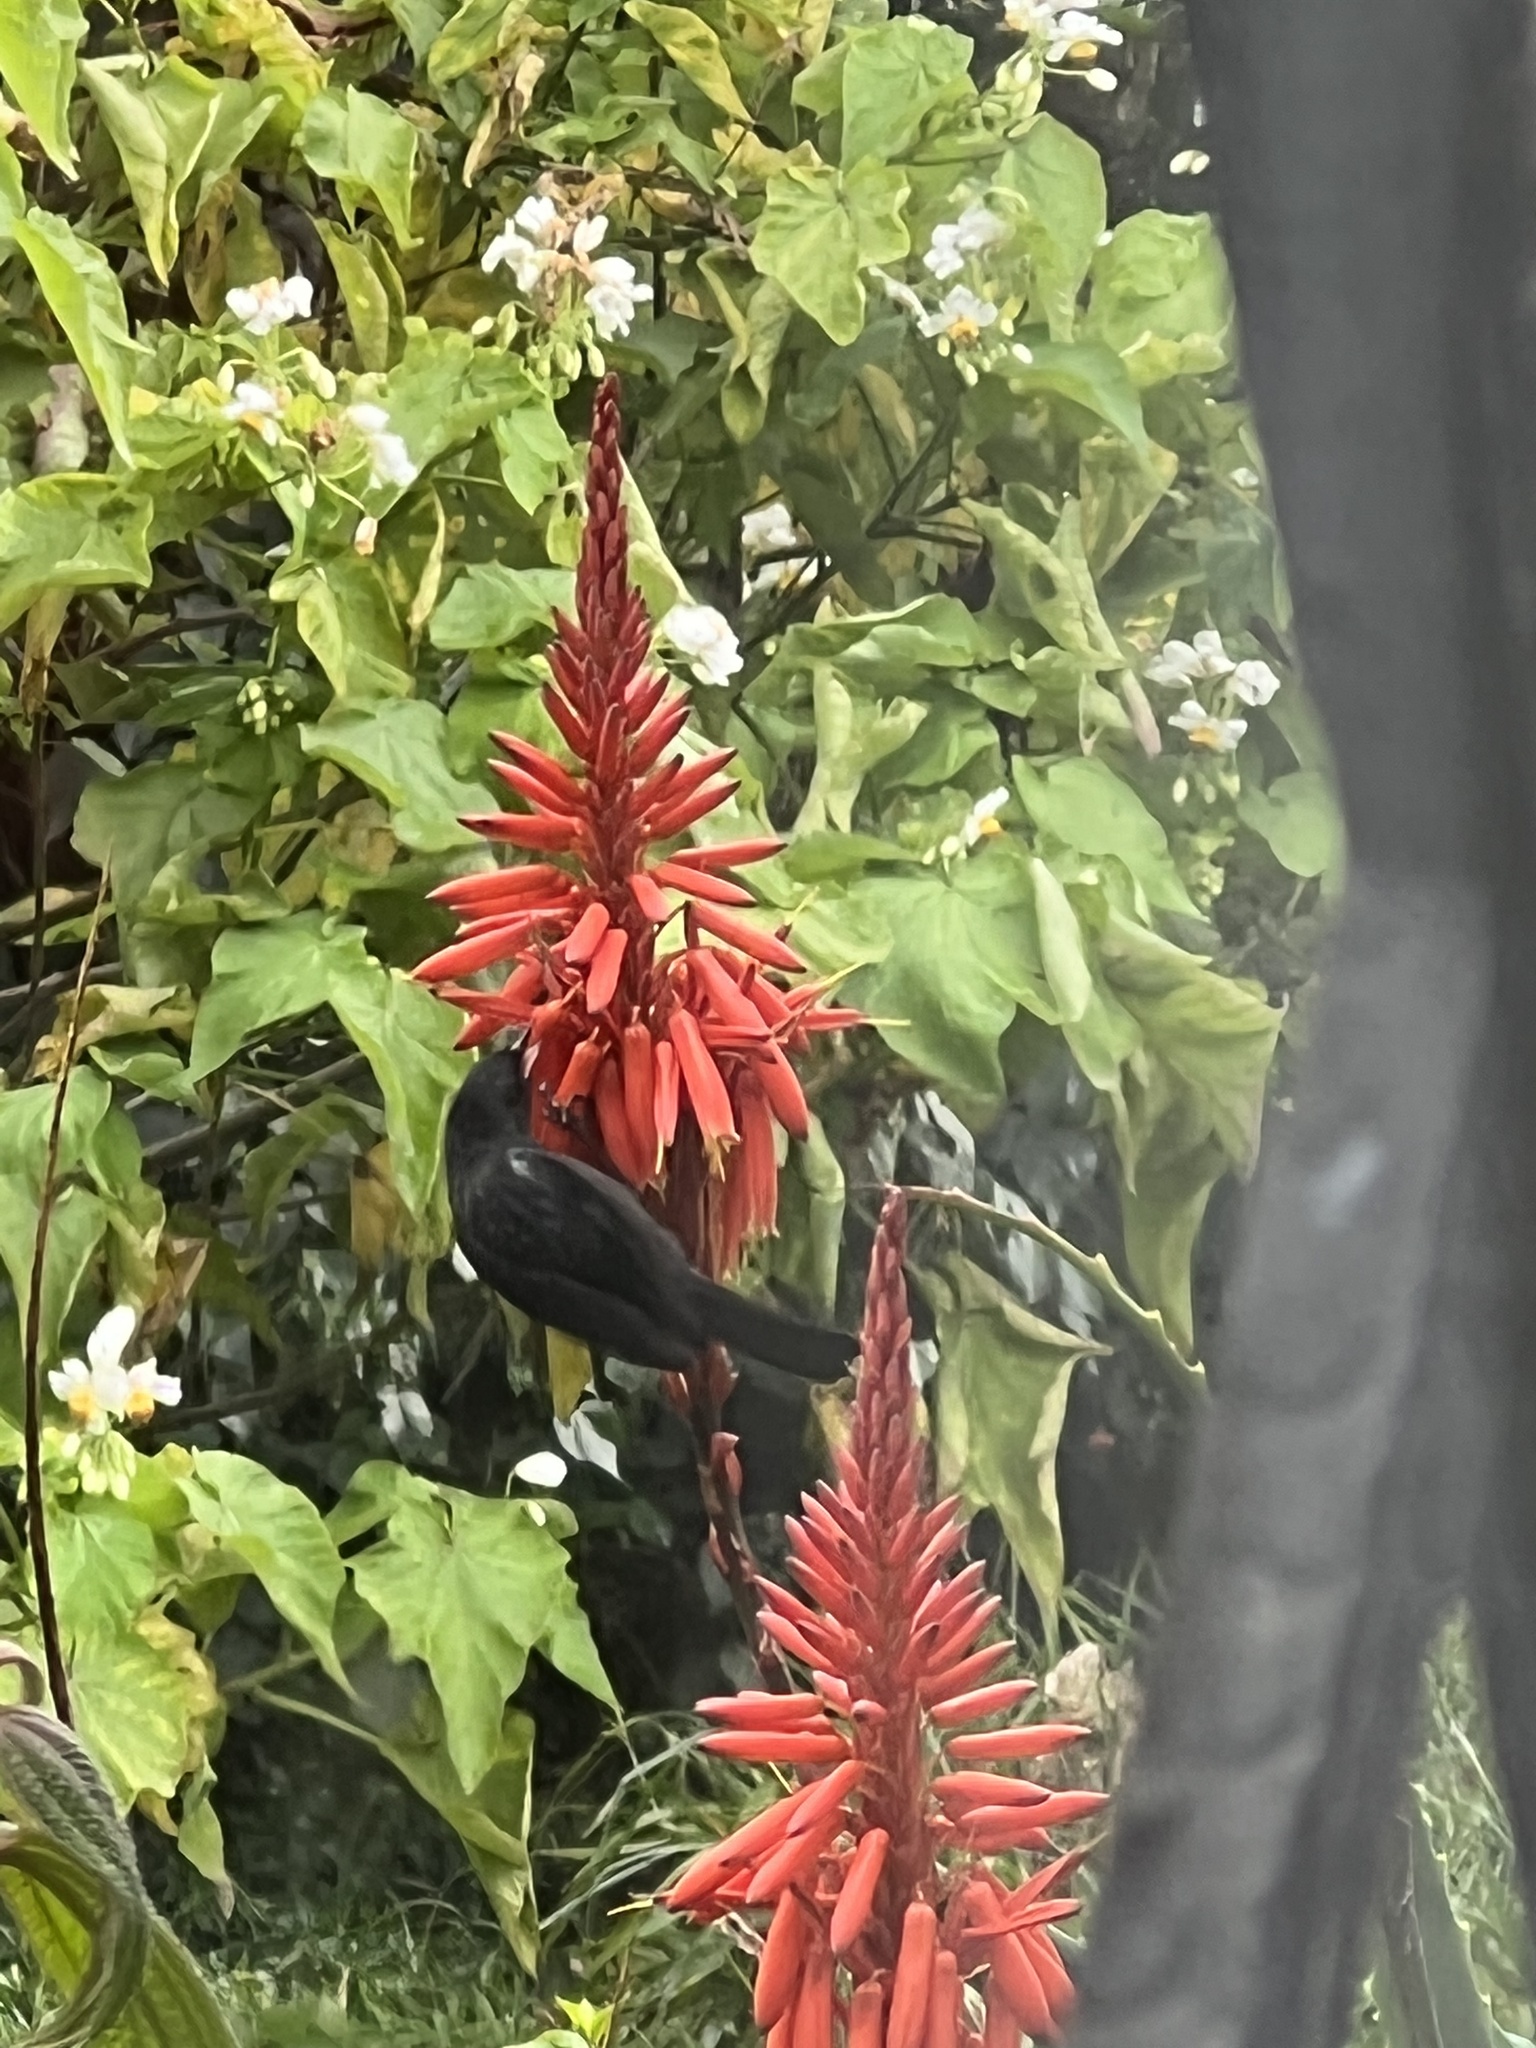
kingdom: Animalia
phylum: Chordata
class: Aves
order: Passeriformes
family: Thraupidae
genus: Diglossa
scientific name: Diglossa humeralis
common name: Black flowerpiercer
